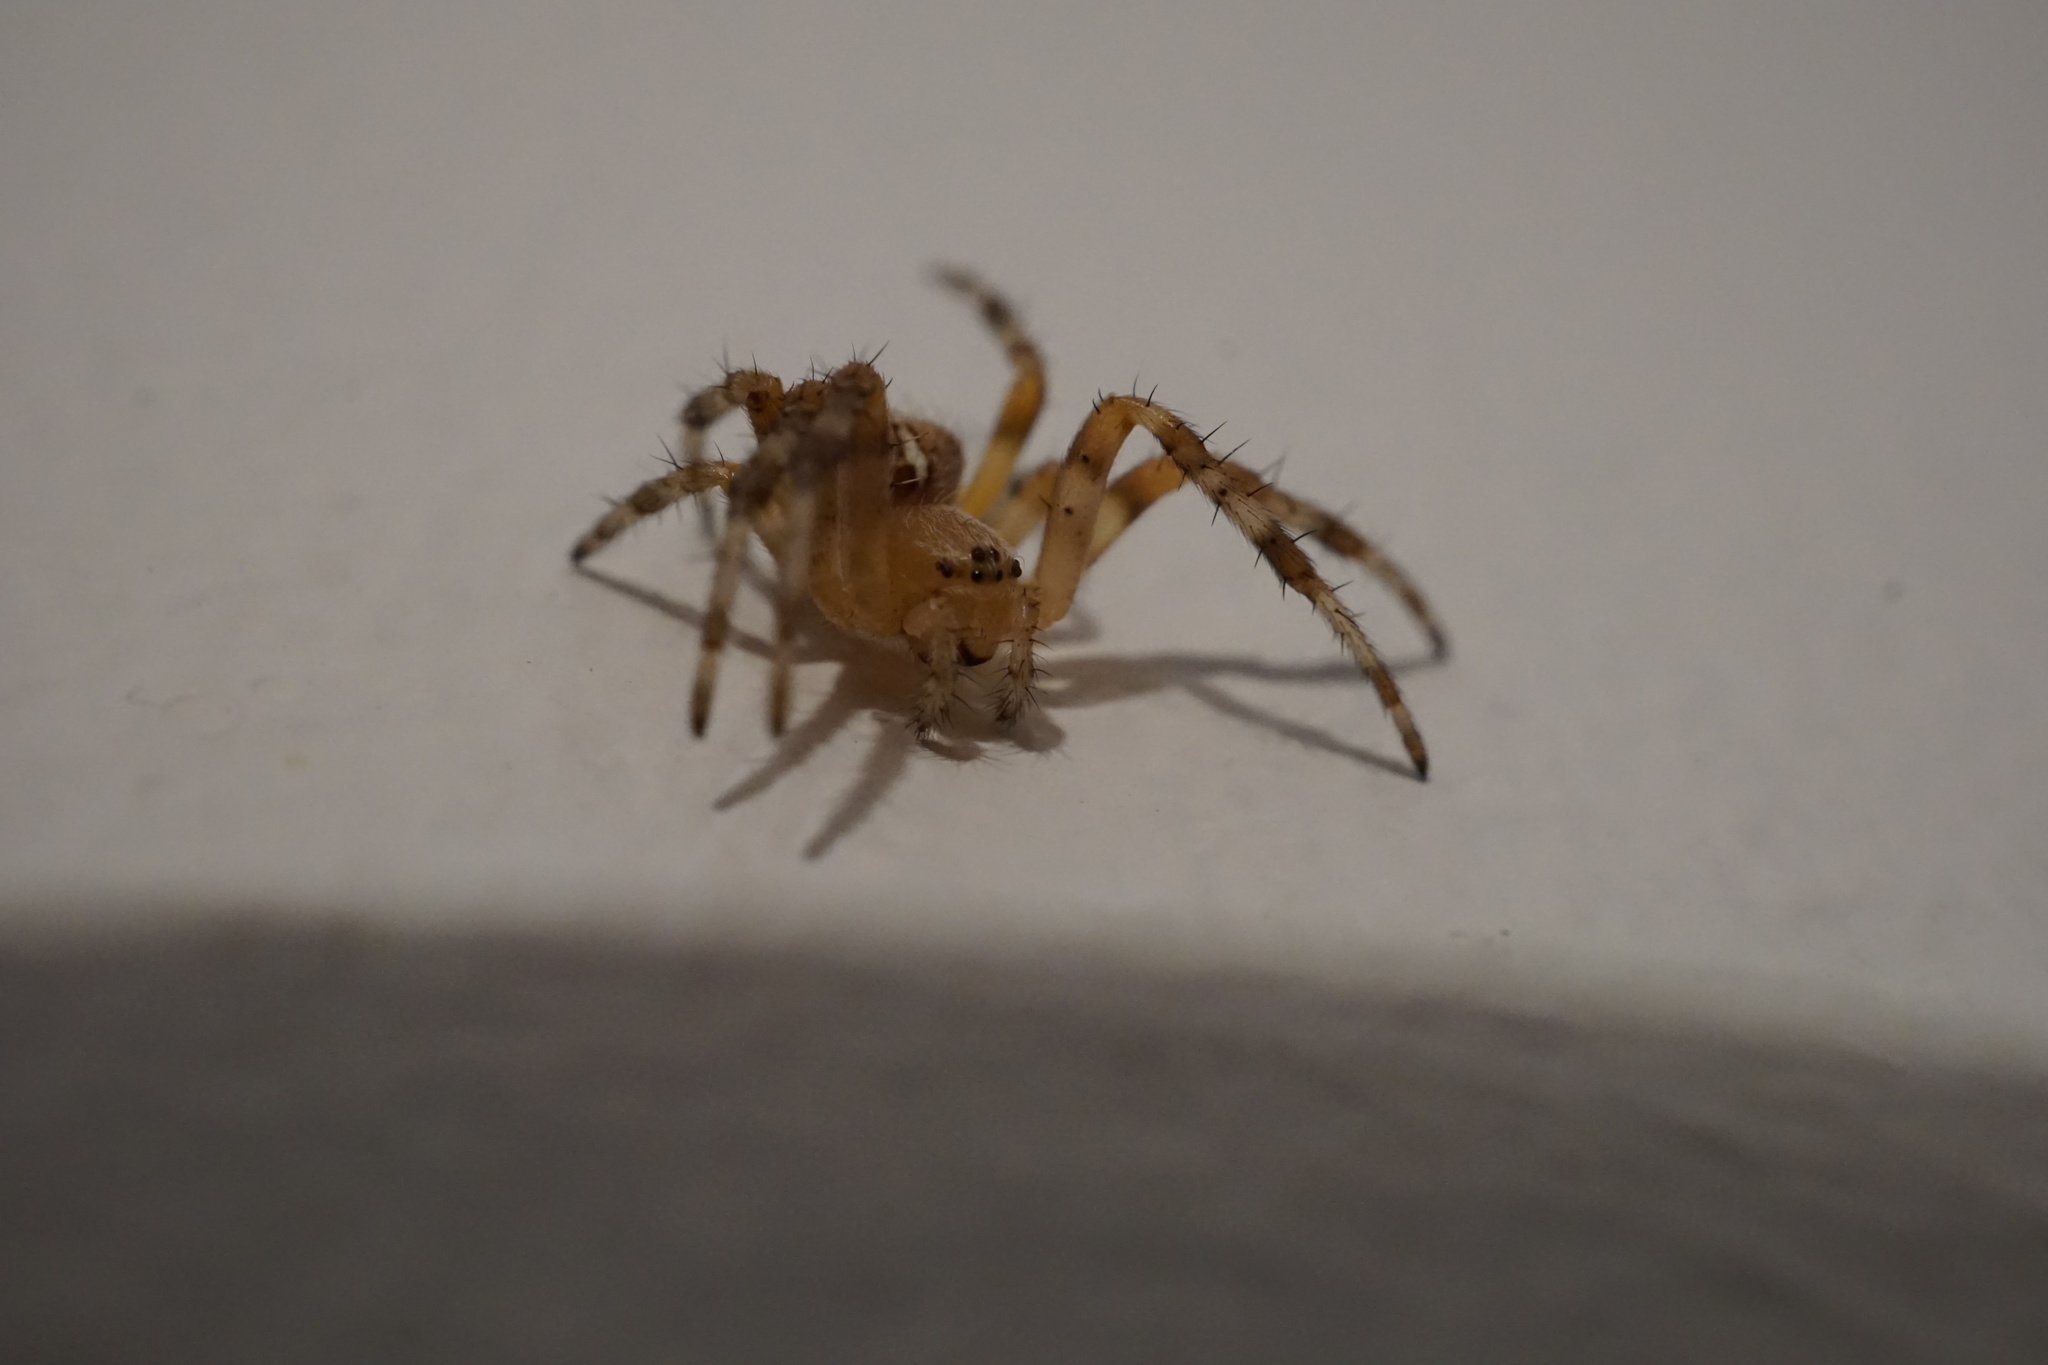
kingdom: Animalia
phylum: Arthropoda
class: Arachnida
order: Araneae
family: Araneidae
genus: Araneus
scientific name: Araneus diadematus
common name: Cross orbweaver
